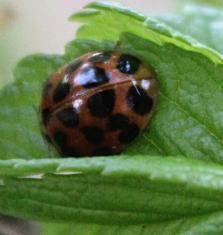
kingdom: Animalia
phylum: Arthropoda
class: Insecta
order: Coleoptera
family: Coccinellidae
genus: Harmonia
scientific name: Harmonia axyridis
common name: Harlequin ladybird
